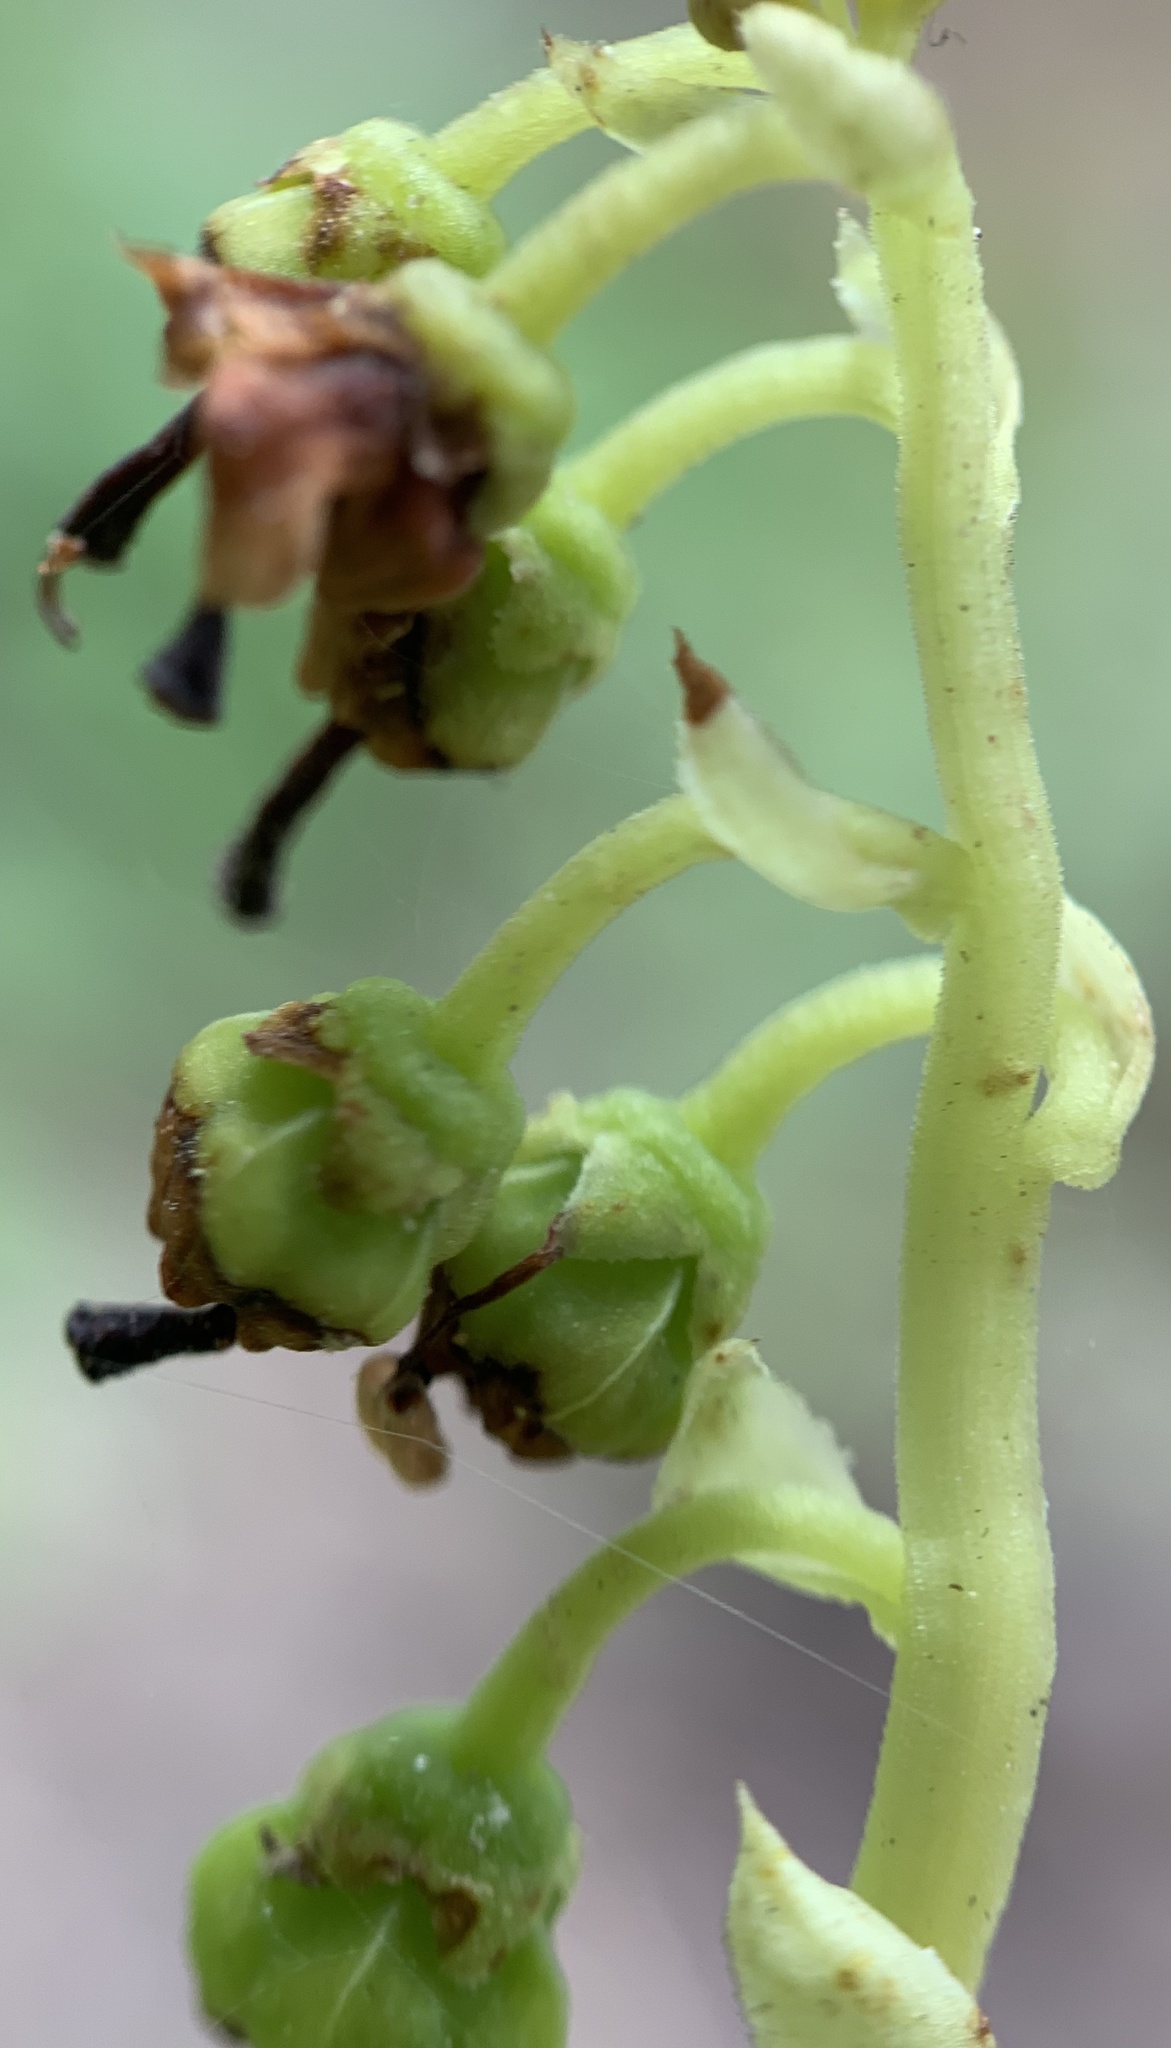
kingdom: Plantae
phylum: Tracheophyta
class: Magnoliopsida
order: Ericales
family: Ericaceae
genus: Orthilia
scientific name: Orthilia secunda
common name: One-sided orthilia
